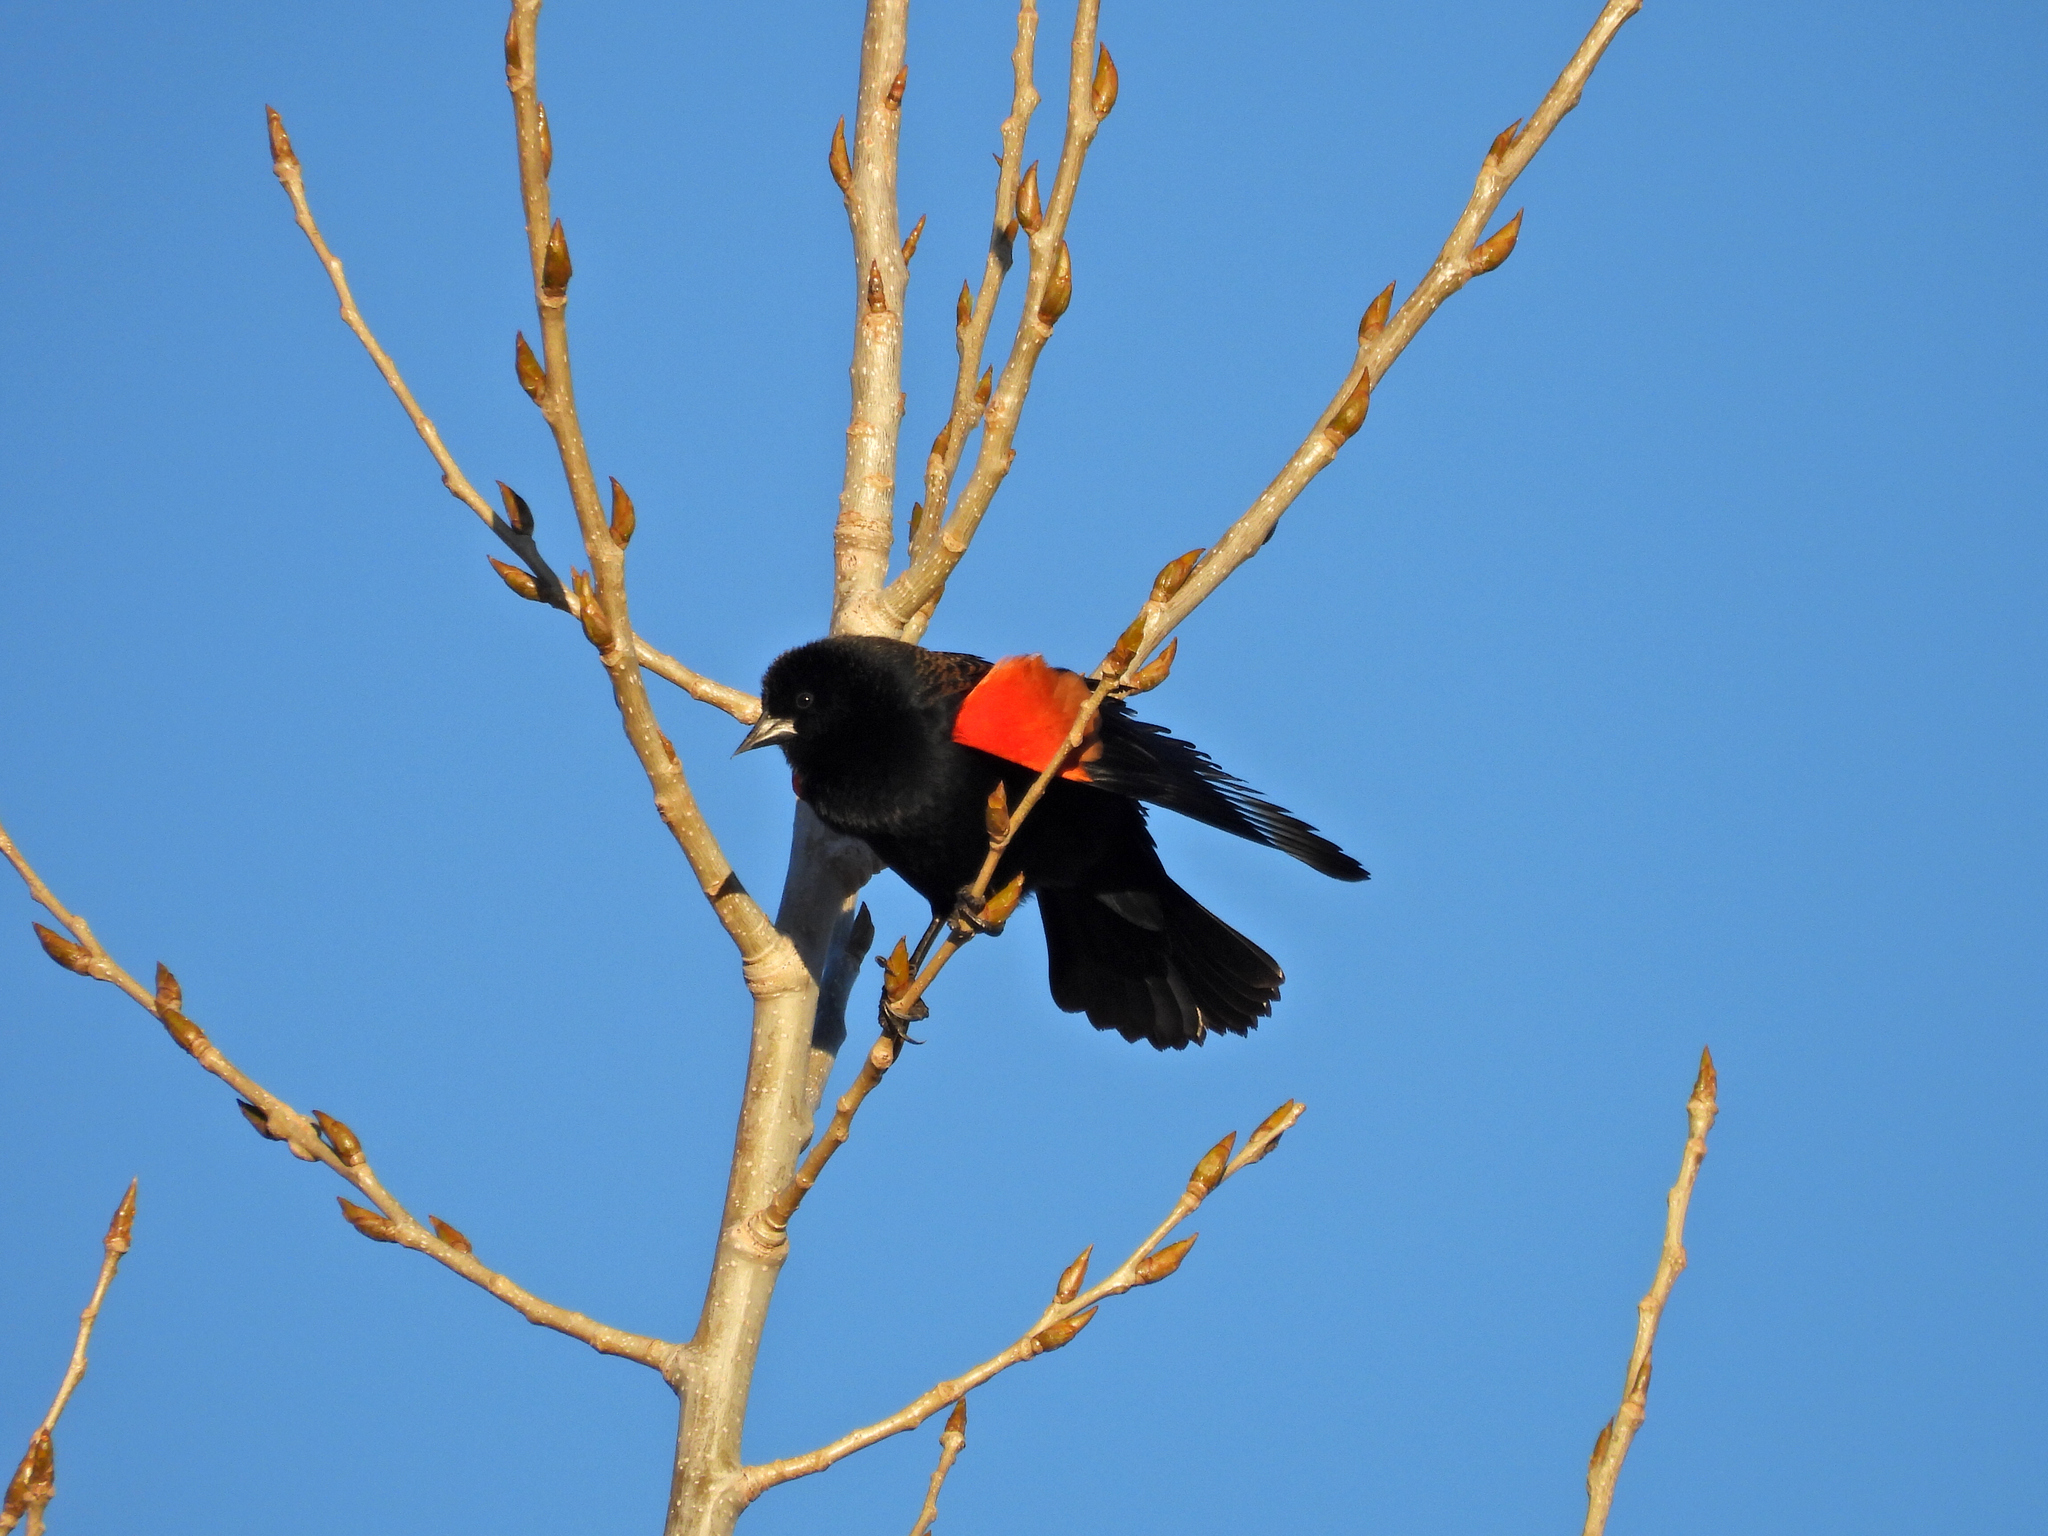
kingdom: Animalia
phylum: Chordata
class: Aves
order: Passeriformes
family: Icteridae
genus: Agelaius
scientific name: Agelaius phoeniceus
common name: Red-winged blackbird
